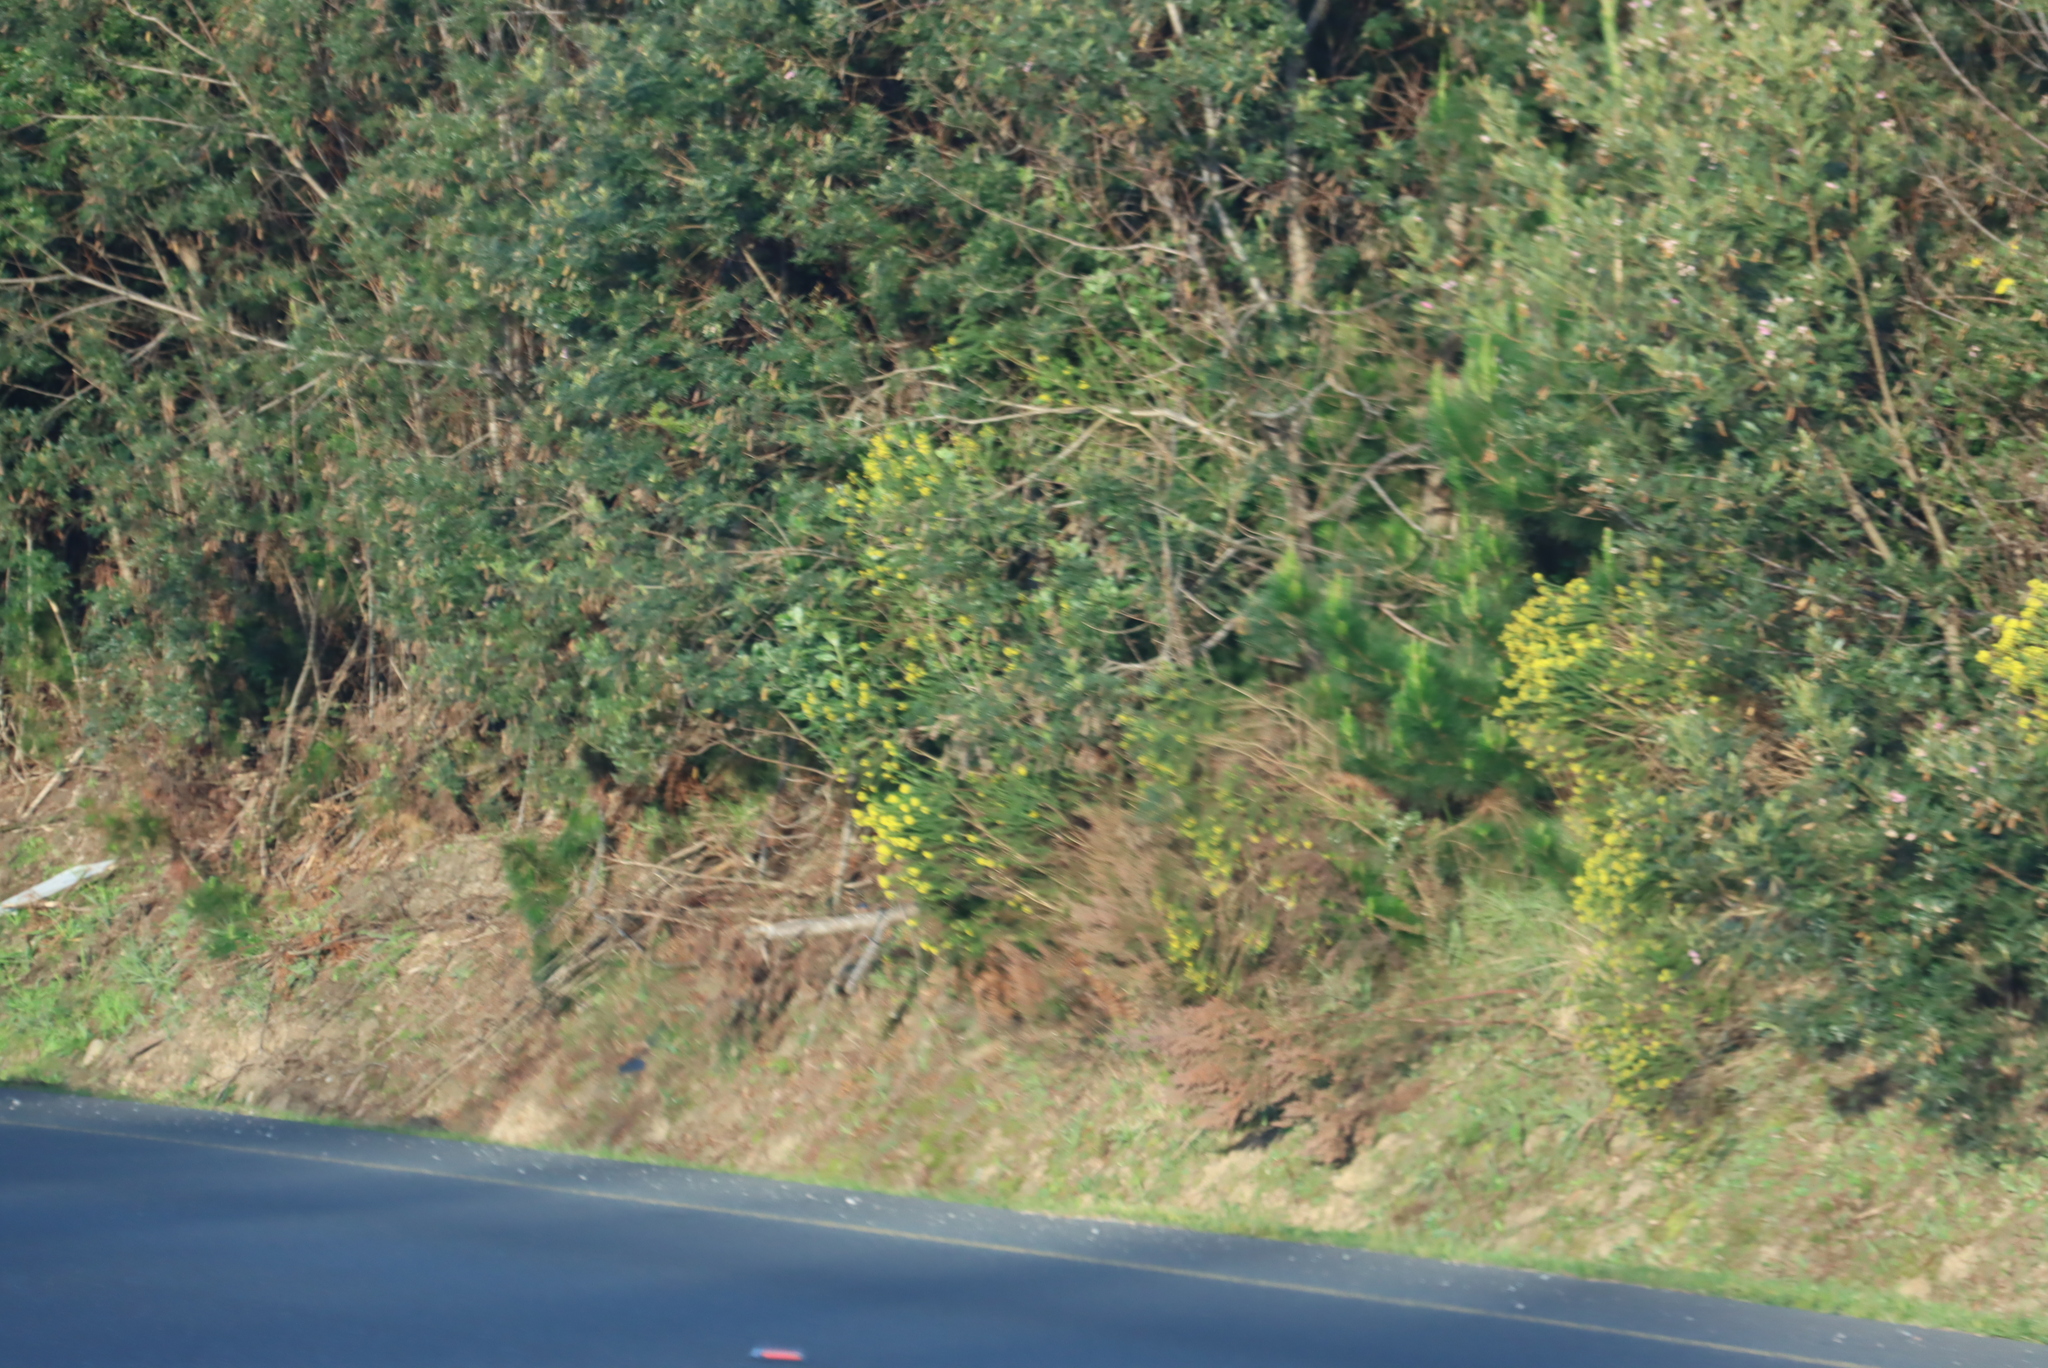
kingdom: Plantae
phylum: Tracheophyta
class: Magnoliopsida
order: Asterales
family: Asteraceae
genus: Euryops
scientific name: Euryops virgineus
